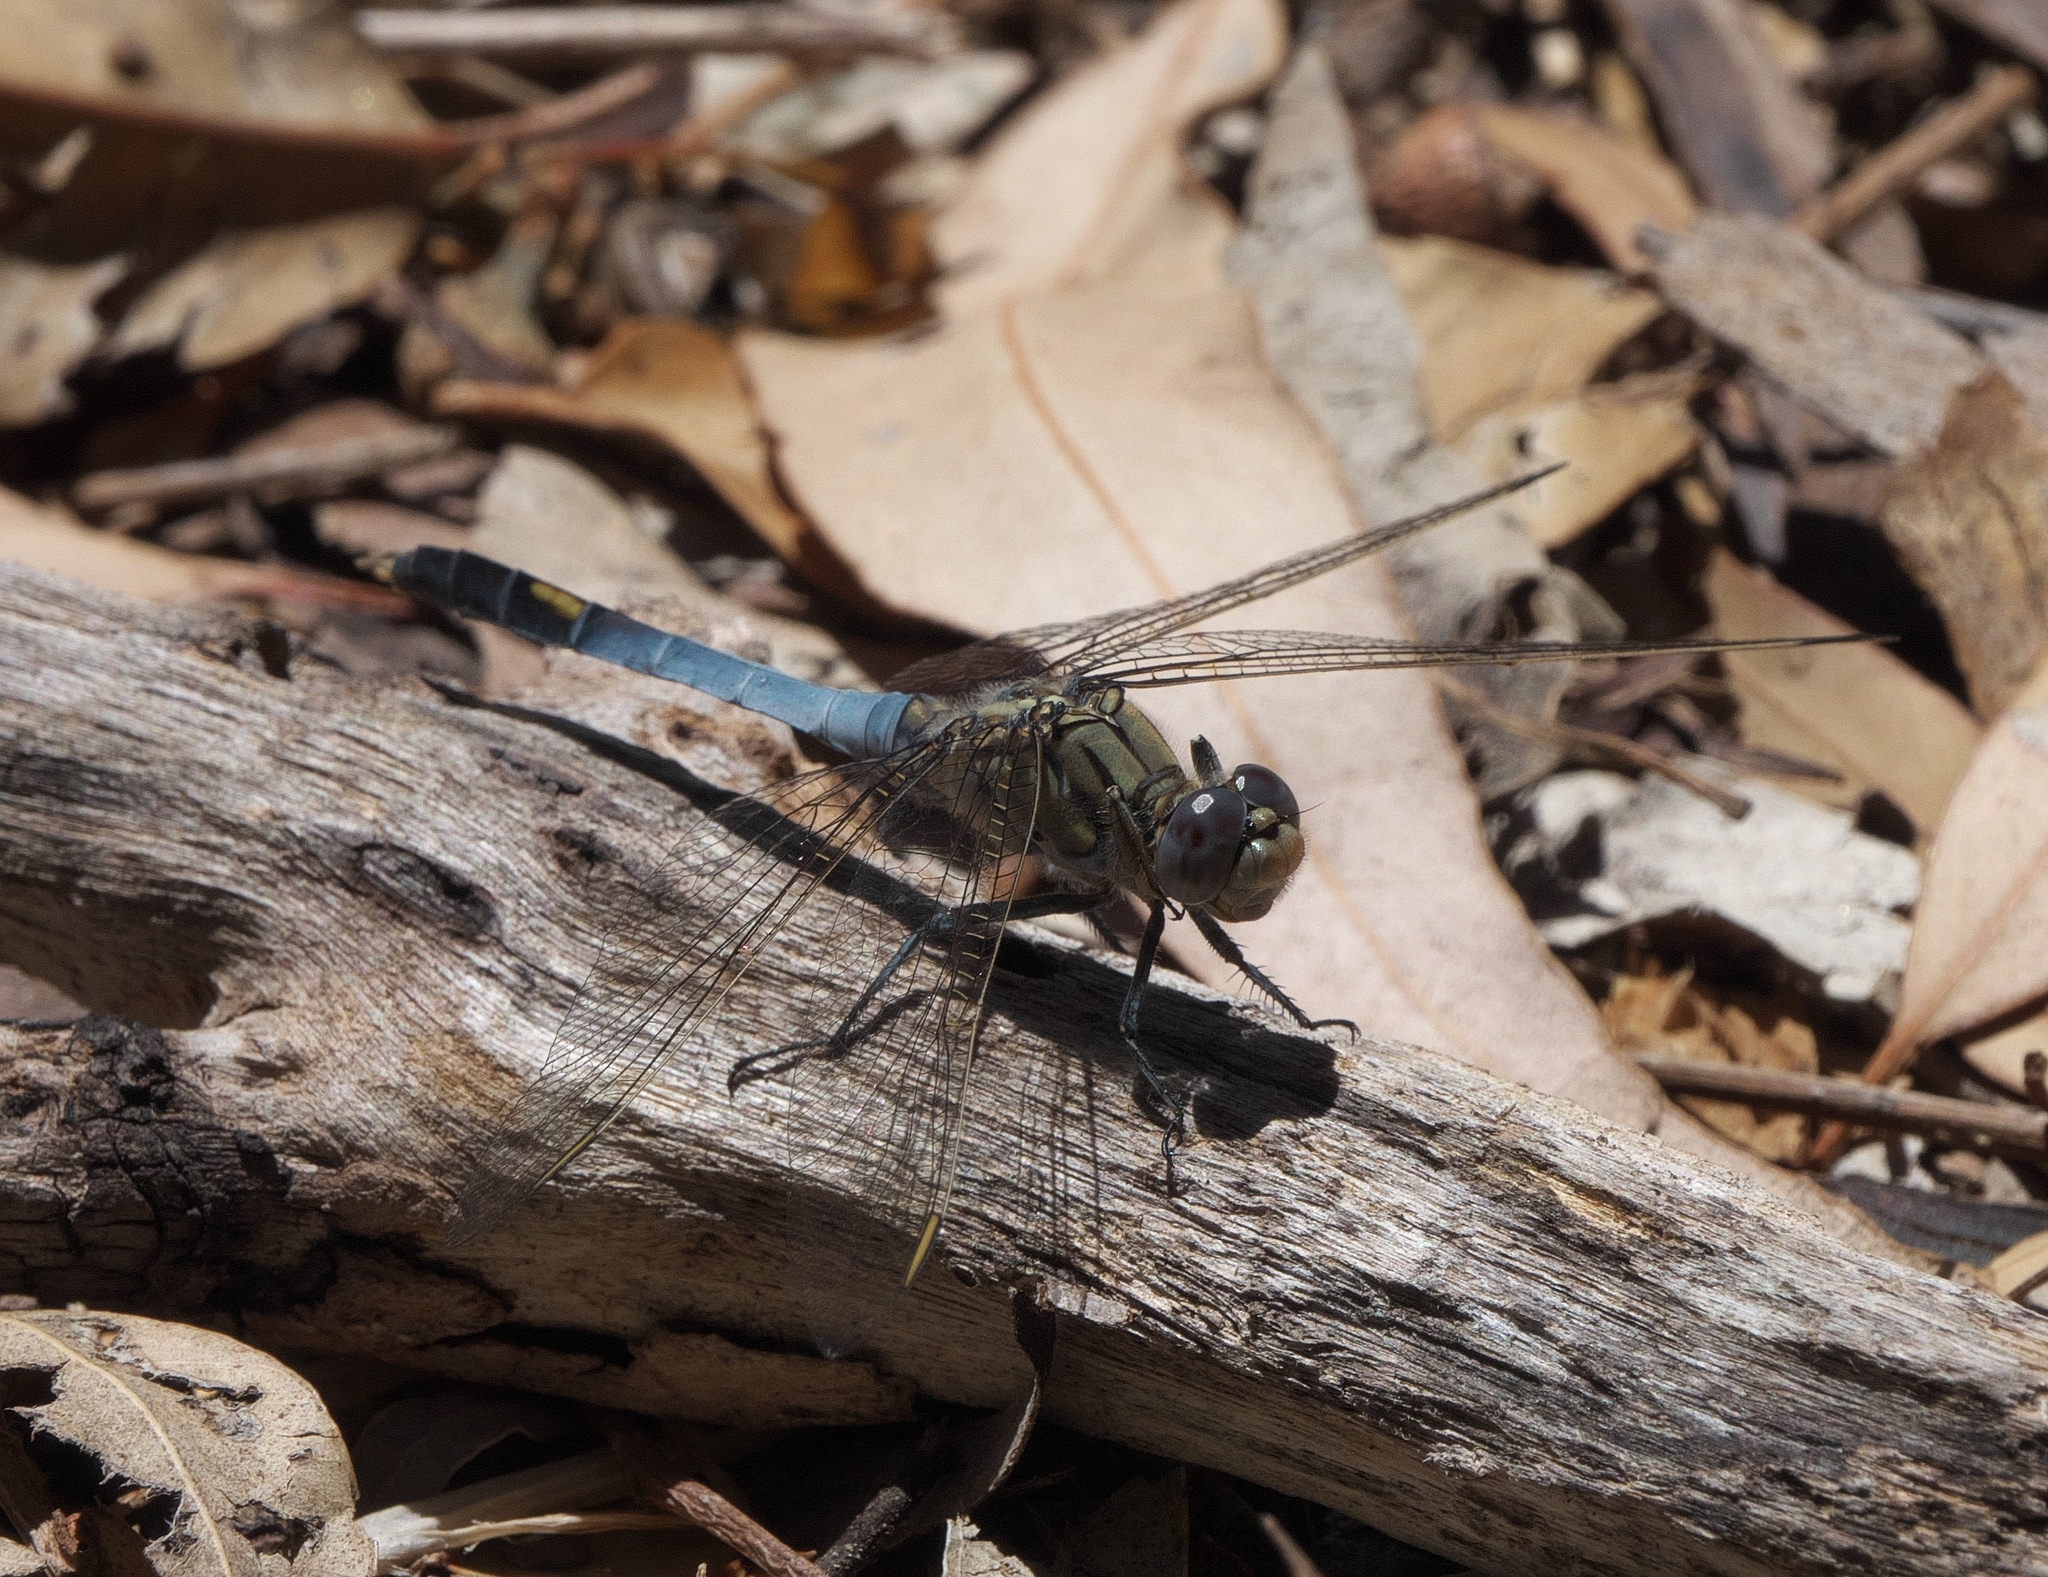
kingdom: Animalia
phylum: Arthropoda
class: Insecta
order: Odonata
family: Libellulidae
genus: Orthetrum
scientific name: Orthetrum caledonicum
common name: Blue skimmer
